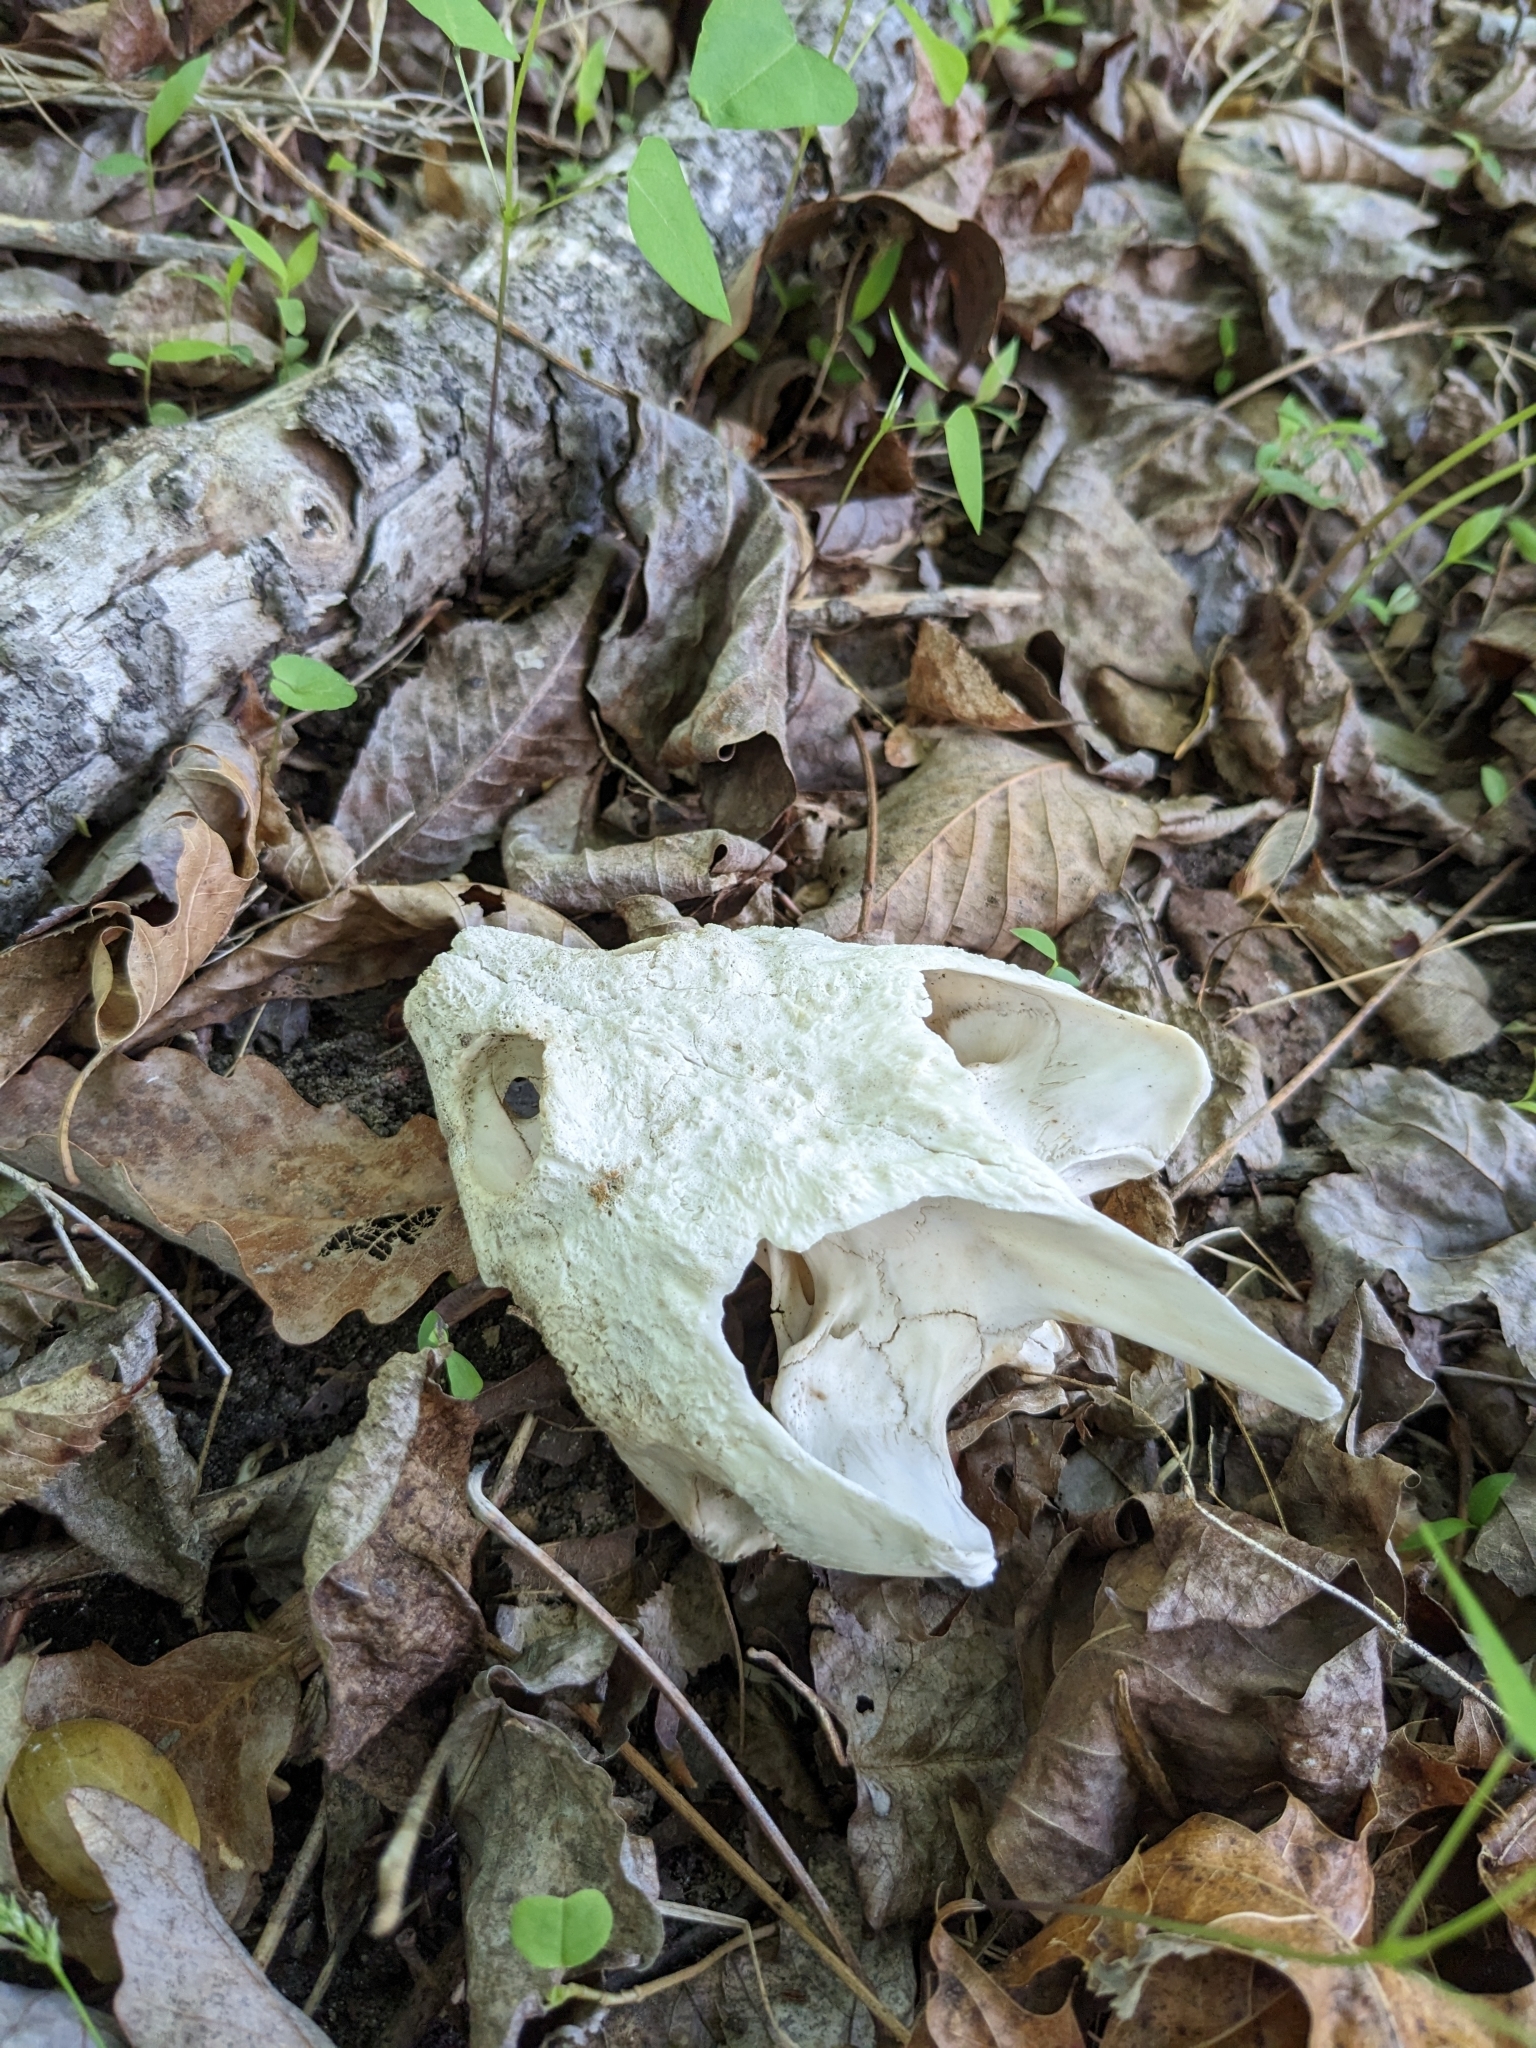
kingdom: Animalia
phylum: Chordata
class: Testudines
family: Chelydridae
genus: Chelydra
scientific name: Chelydra serpentina
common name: Common snapping turtle
